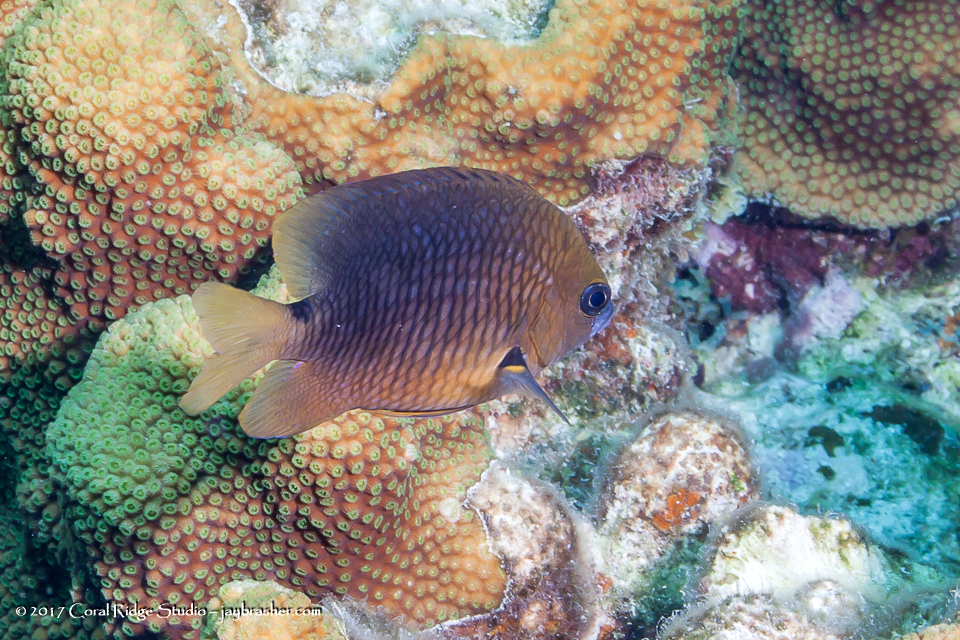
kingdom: Animalia
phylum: Chordata
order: Perciformes
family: Pomacentridae
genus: Stegastes
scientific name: Stegastes planifrons
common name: Threespot damselfish
